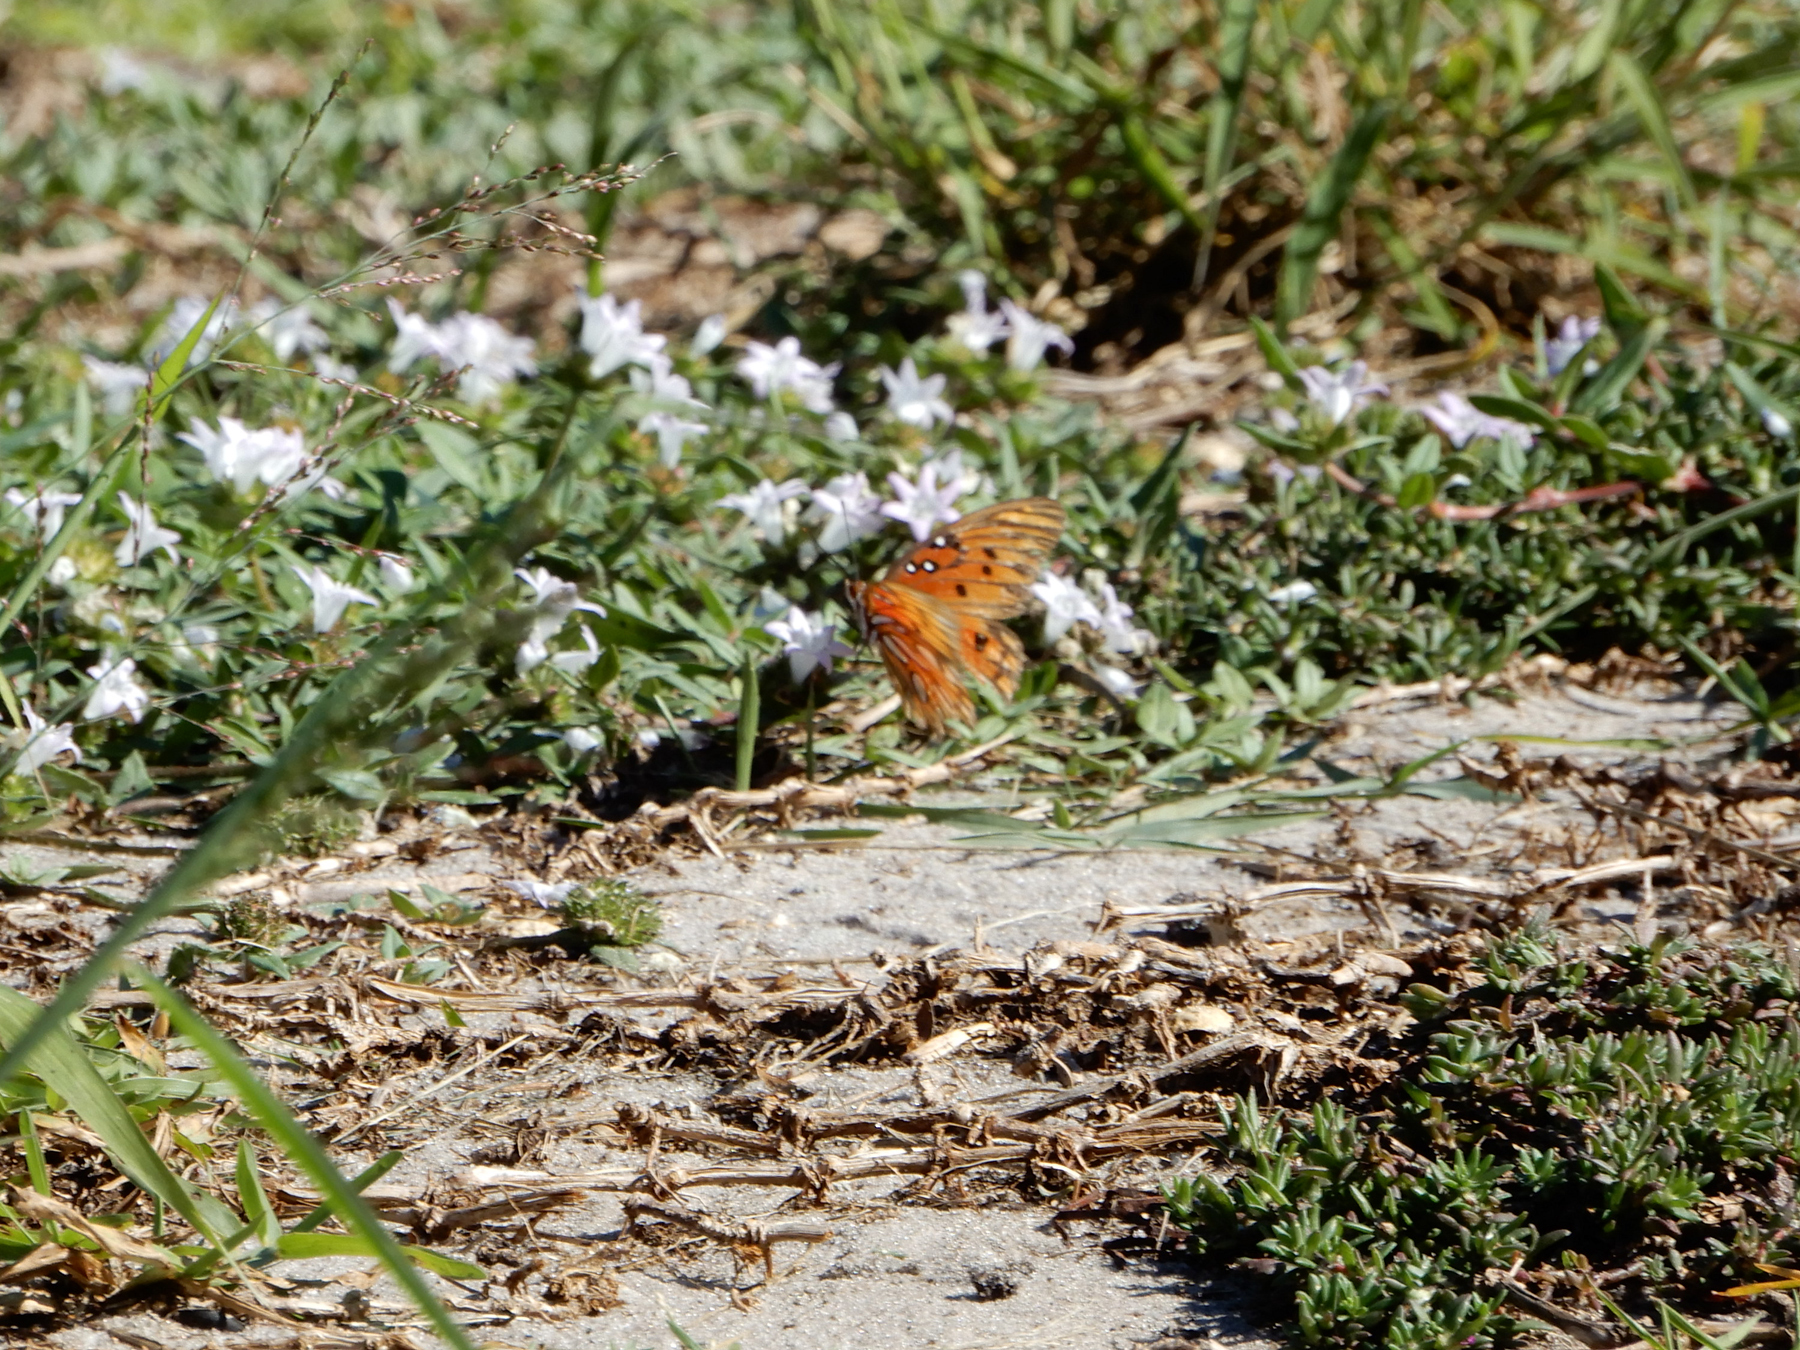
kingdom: Animalia
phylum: Arthropoda
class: Insecta
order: Lepidoptera
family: Nymphalidae
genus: Dione
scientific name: Dione vanillae
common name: Gulf fritillary
